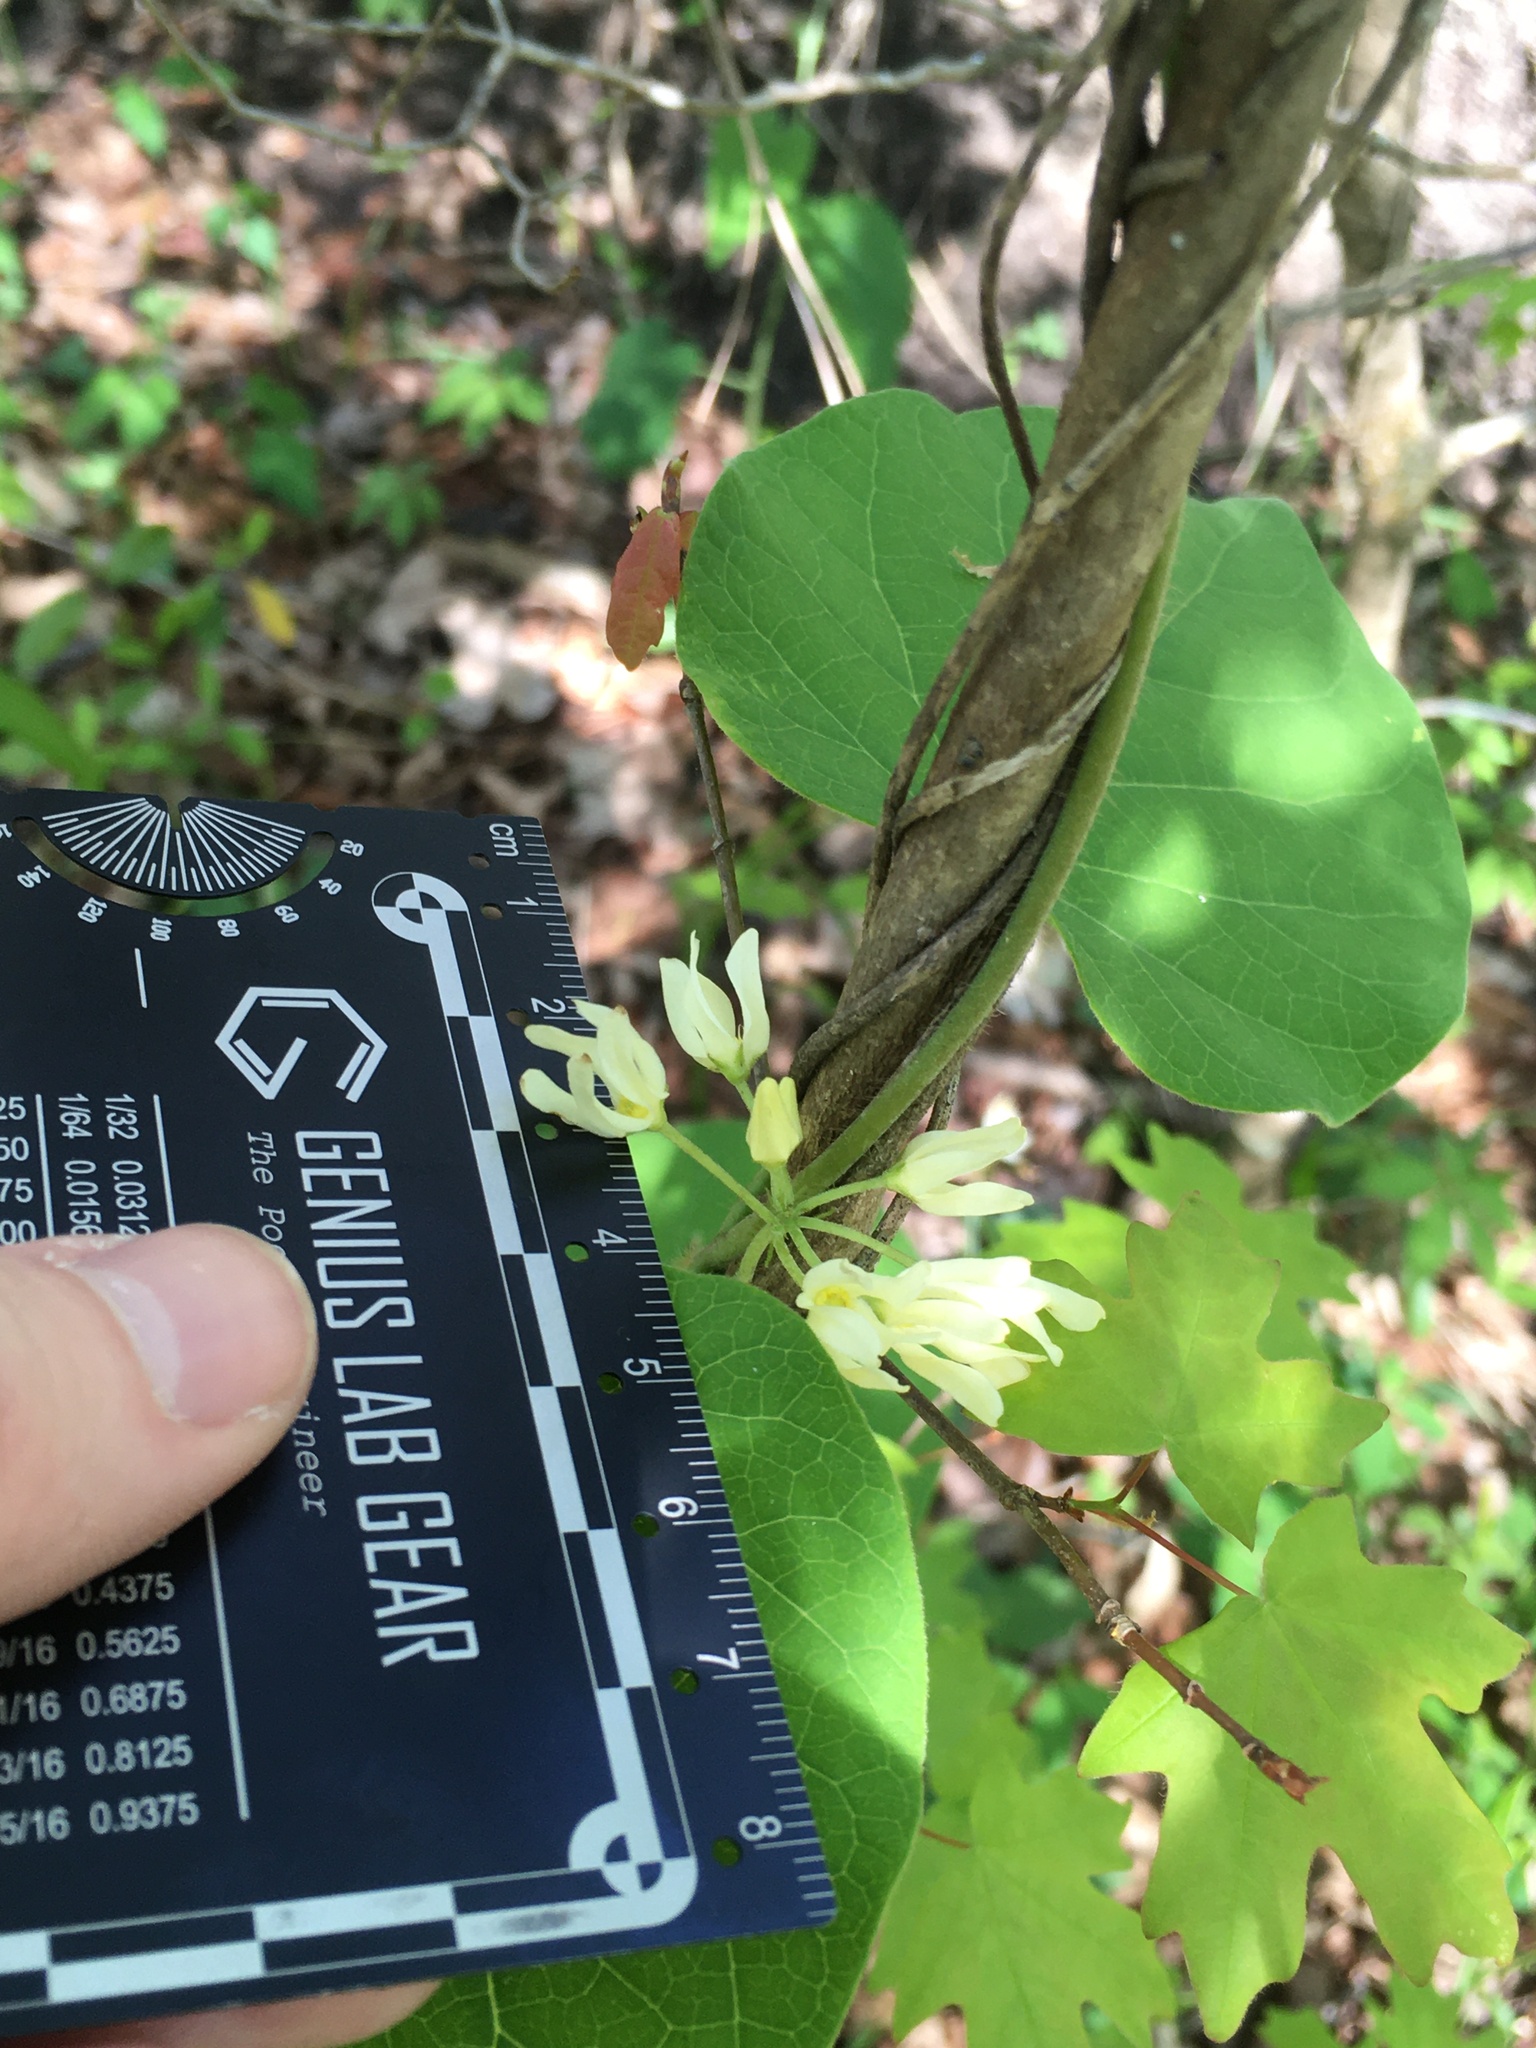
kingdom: Plantae
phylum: Tracheophyta
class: Magnoliopsida
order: Gentianales
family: Apocynaceae
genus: Matelea
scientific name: Matelea baldwyniana
